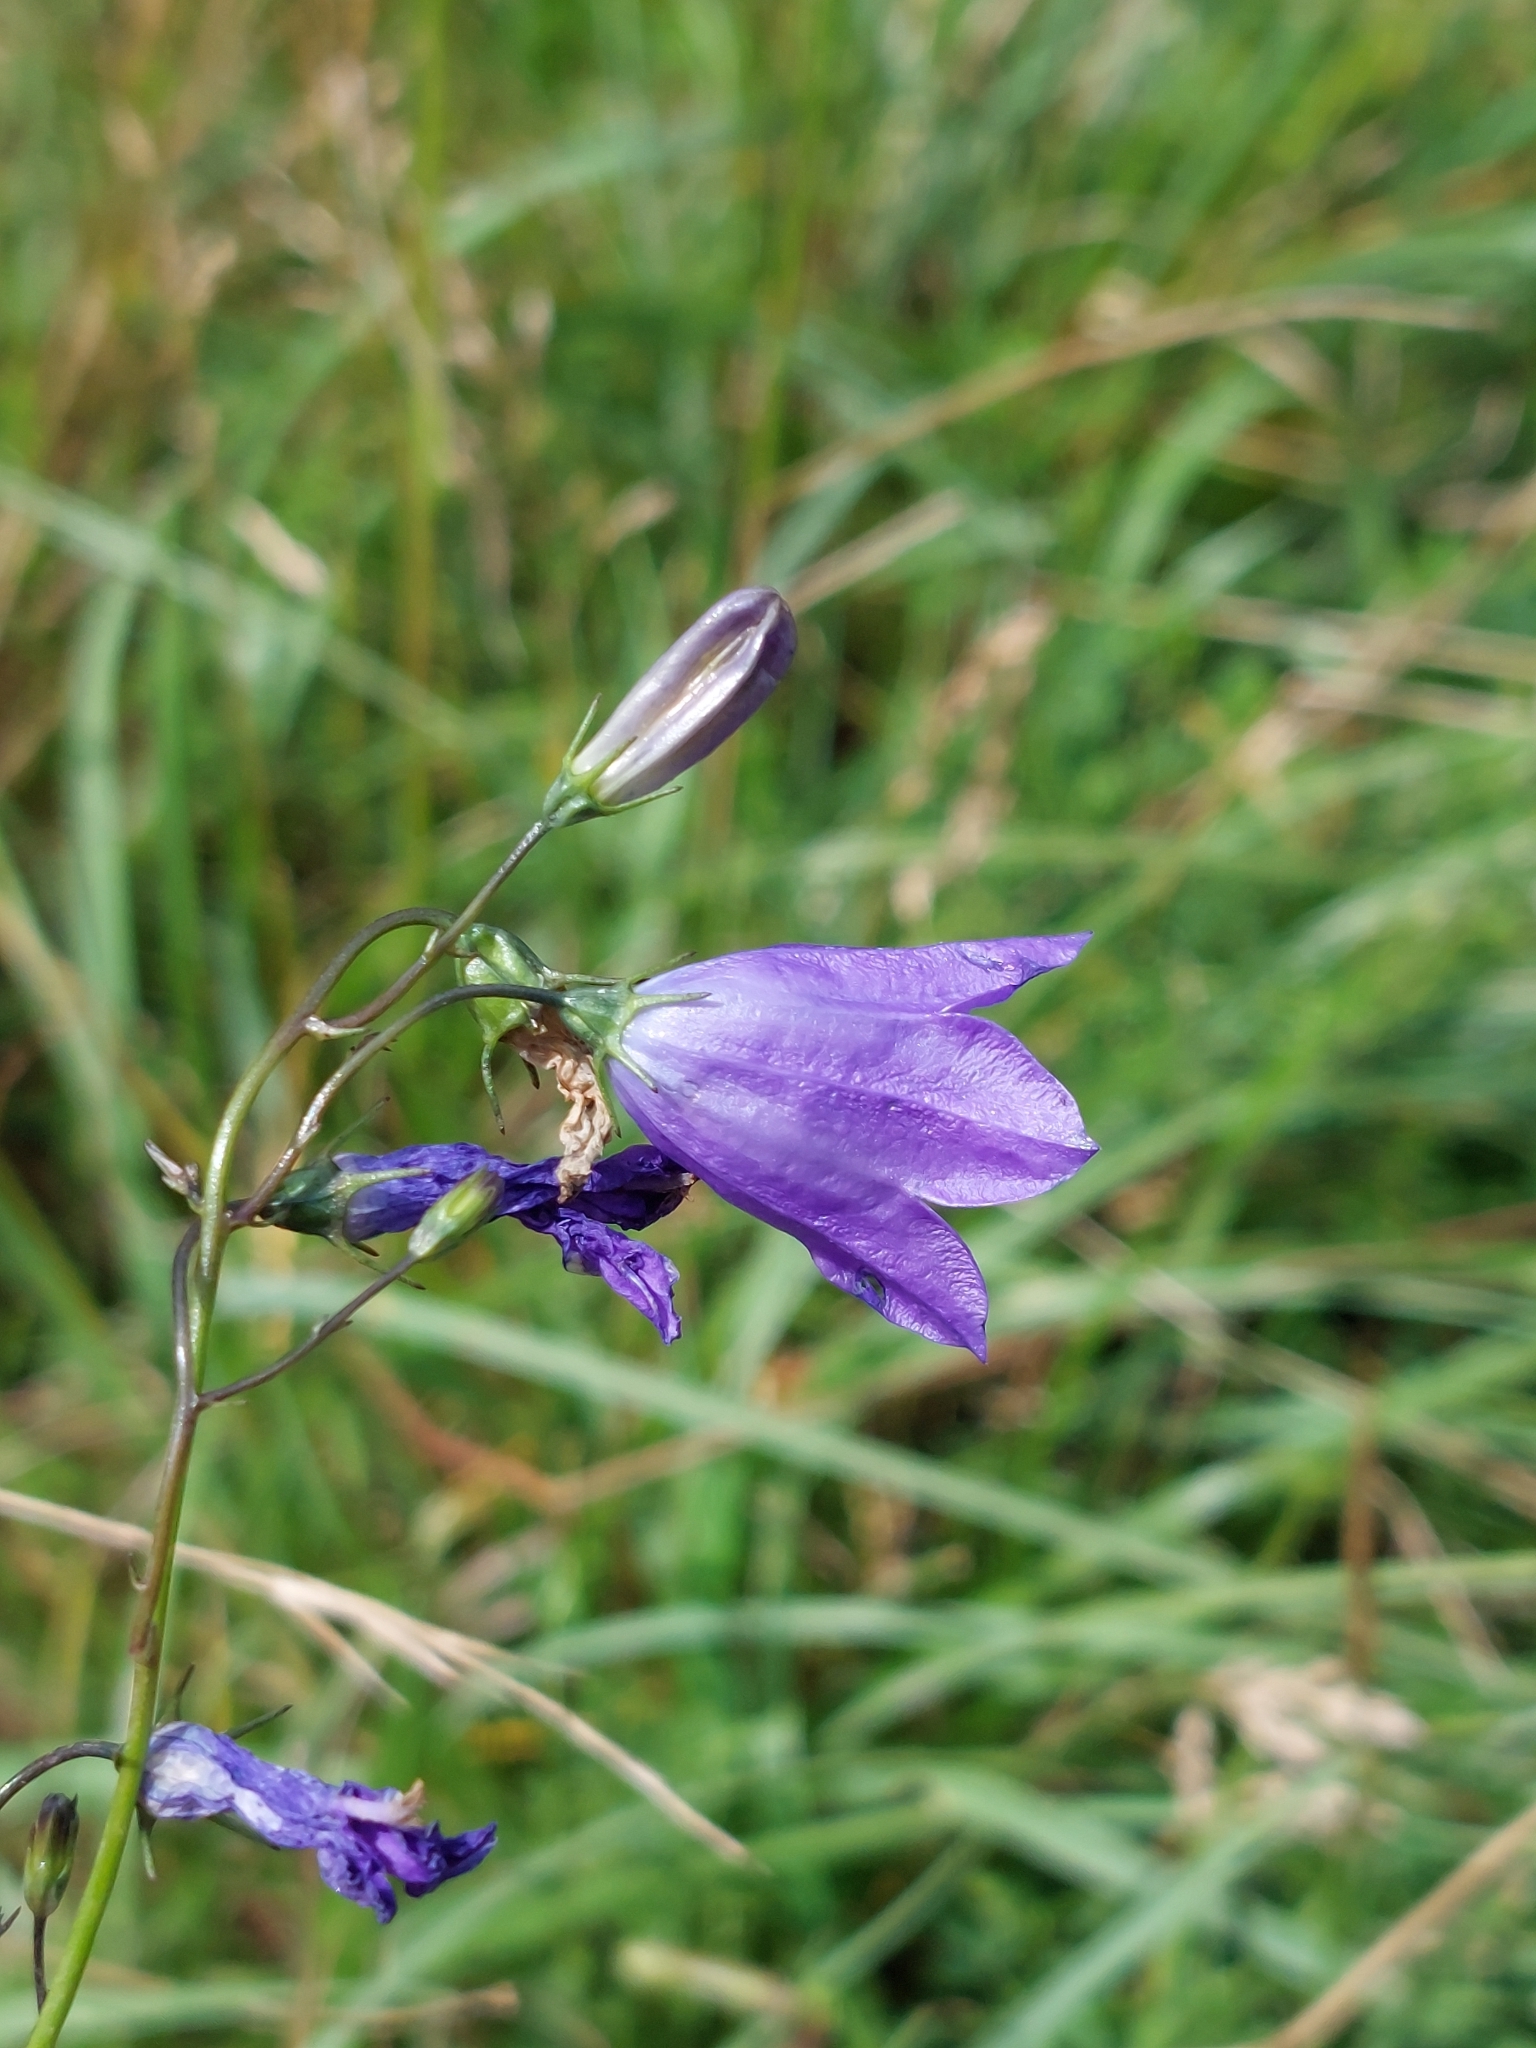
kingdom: Plantae
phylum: Tracheophyta
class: Magnoliopsida
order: Asterales
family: Campanulaceae
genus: Campanula
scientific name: Campanula rotundifolia
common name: Harebell
